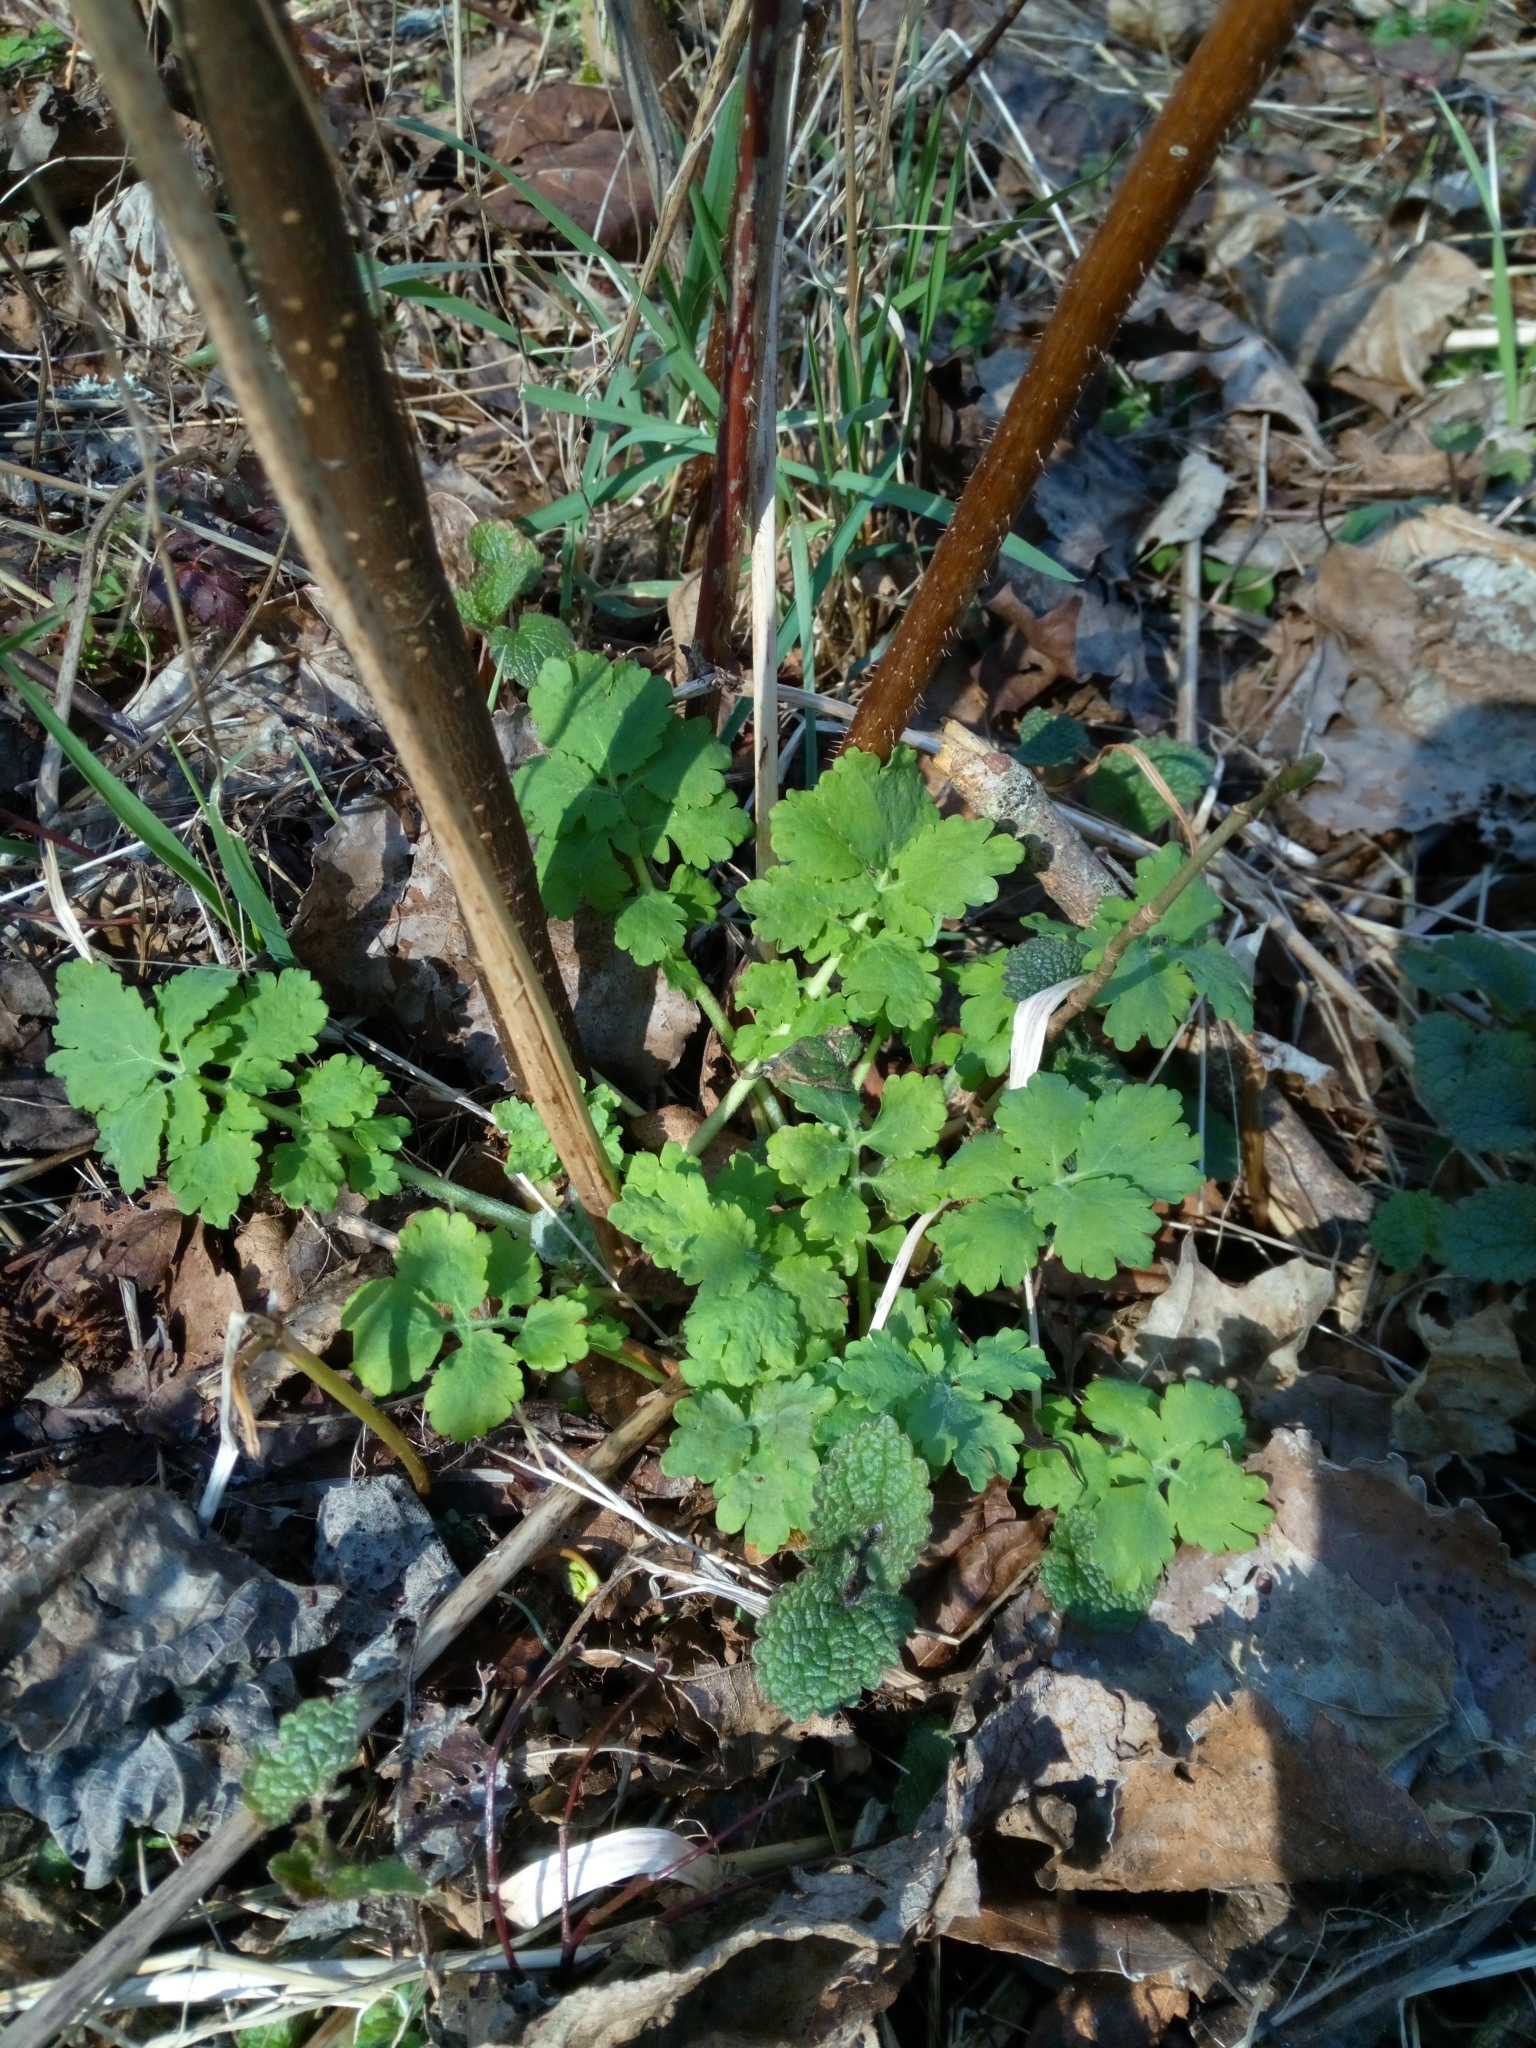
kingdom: Plantae
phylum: Tracheophyta
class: Magnoliopsida
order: Ranunculales
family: Papaveraceae
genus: Chelidonium
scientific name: Chelidonium majus
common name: Greater celandine
